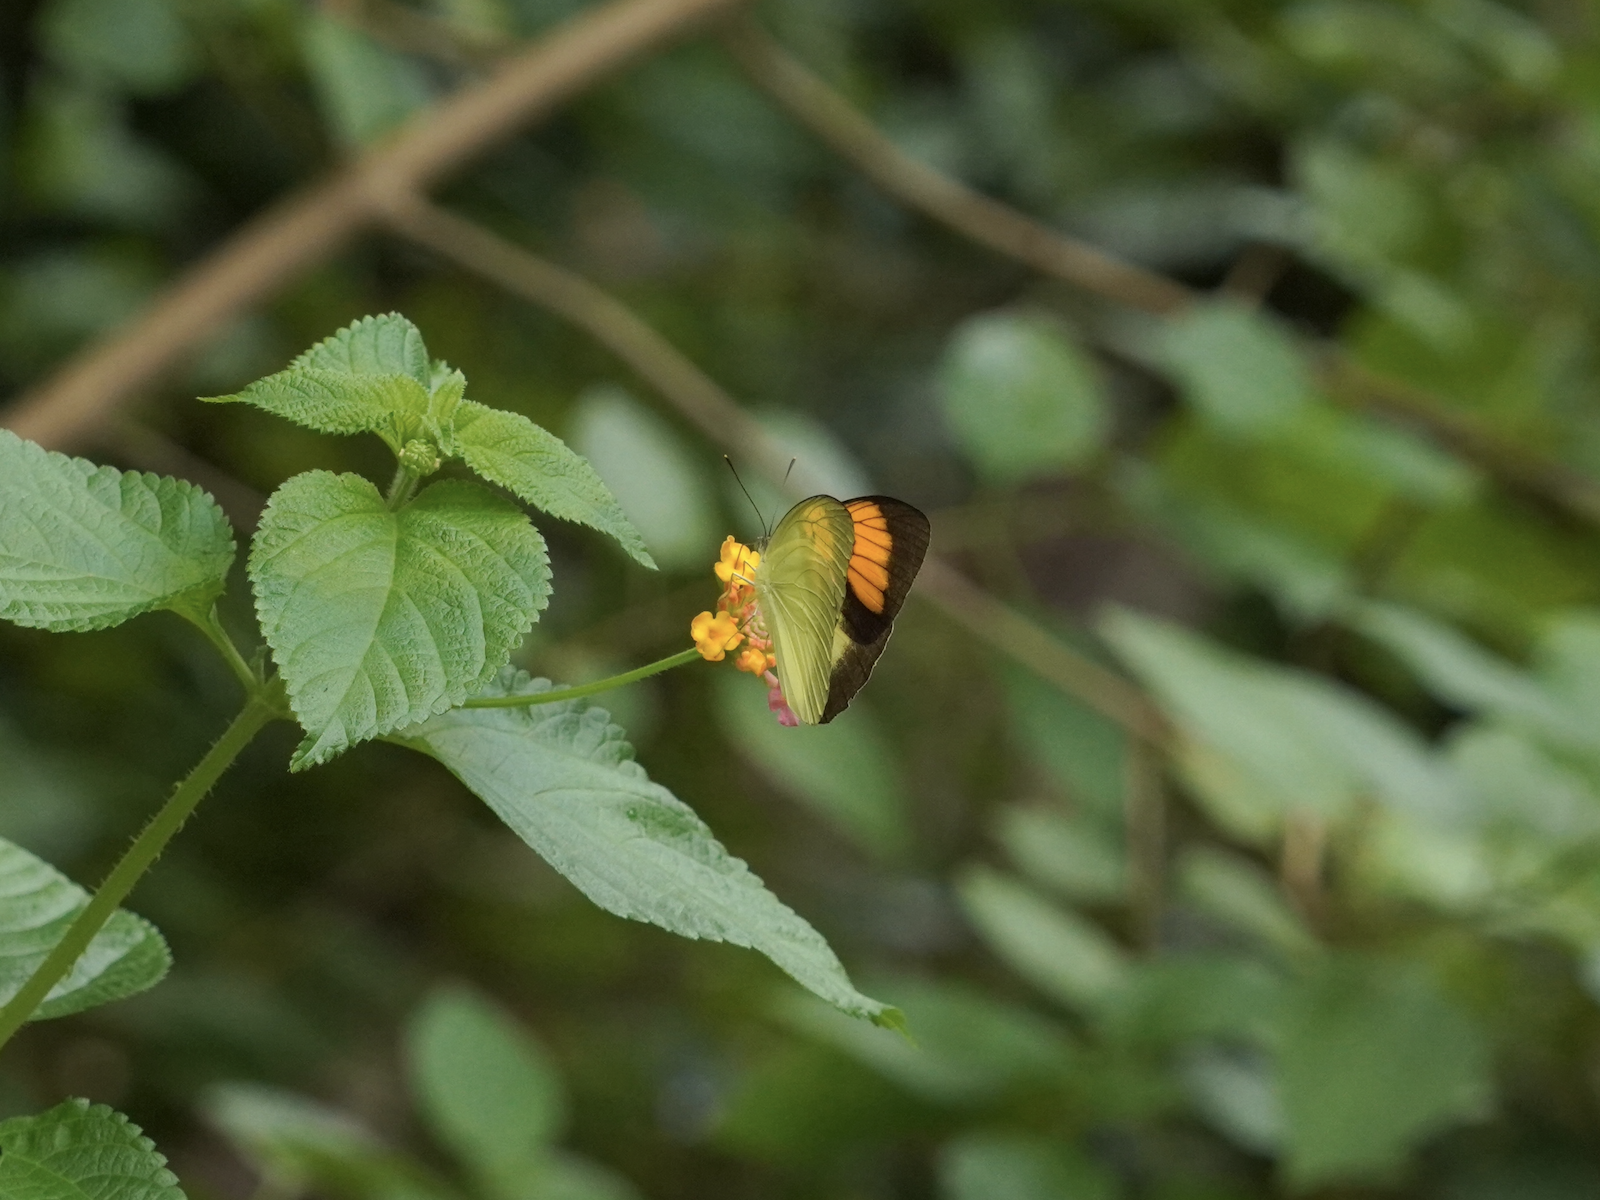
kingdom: Animalia
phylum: Arthropoda
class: Insecta
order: Lepidoptera
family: Pieridae
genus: Ixias
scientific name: Ixias pyrene
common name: Yellow orange tip
